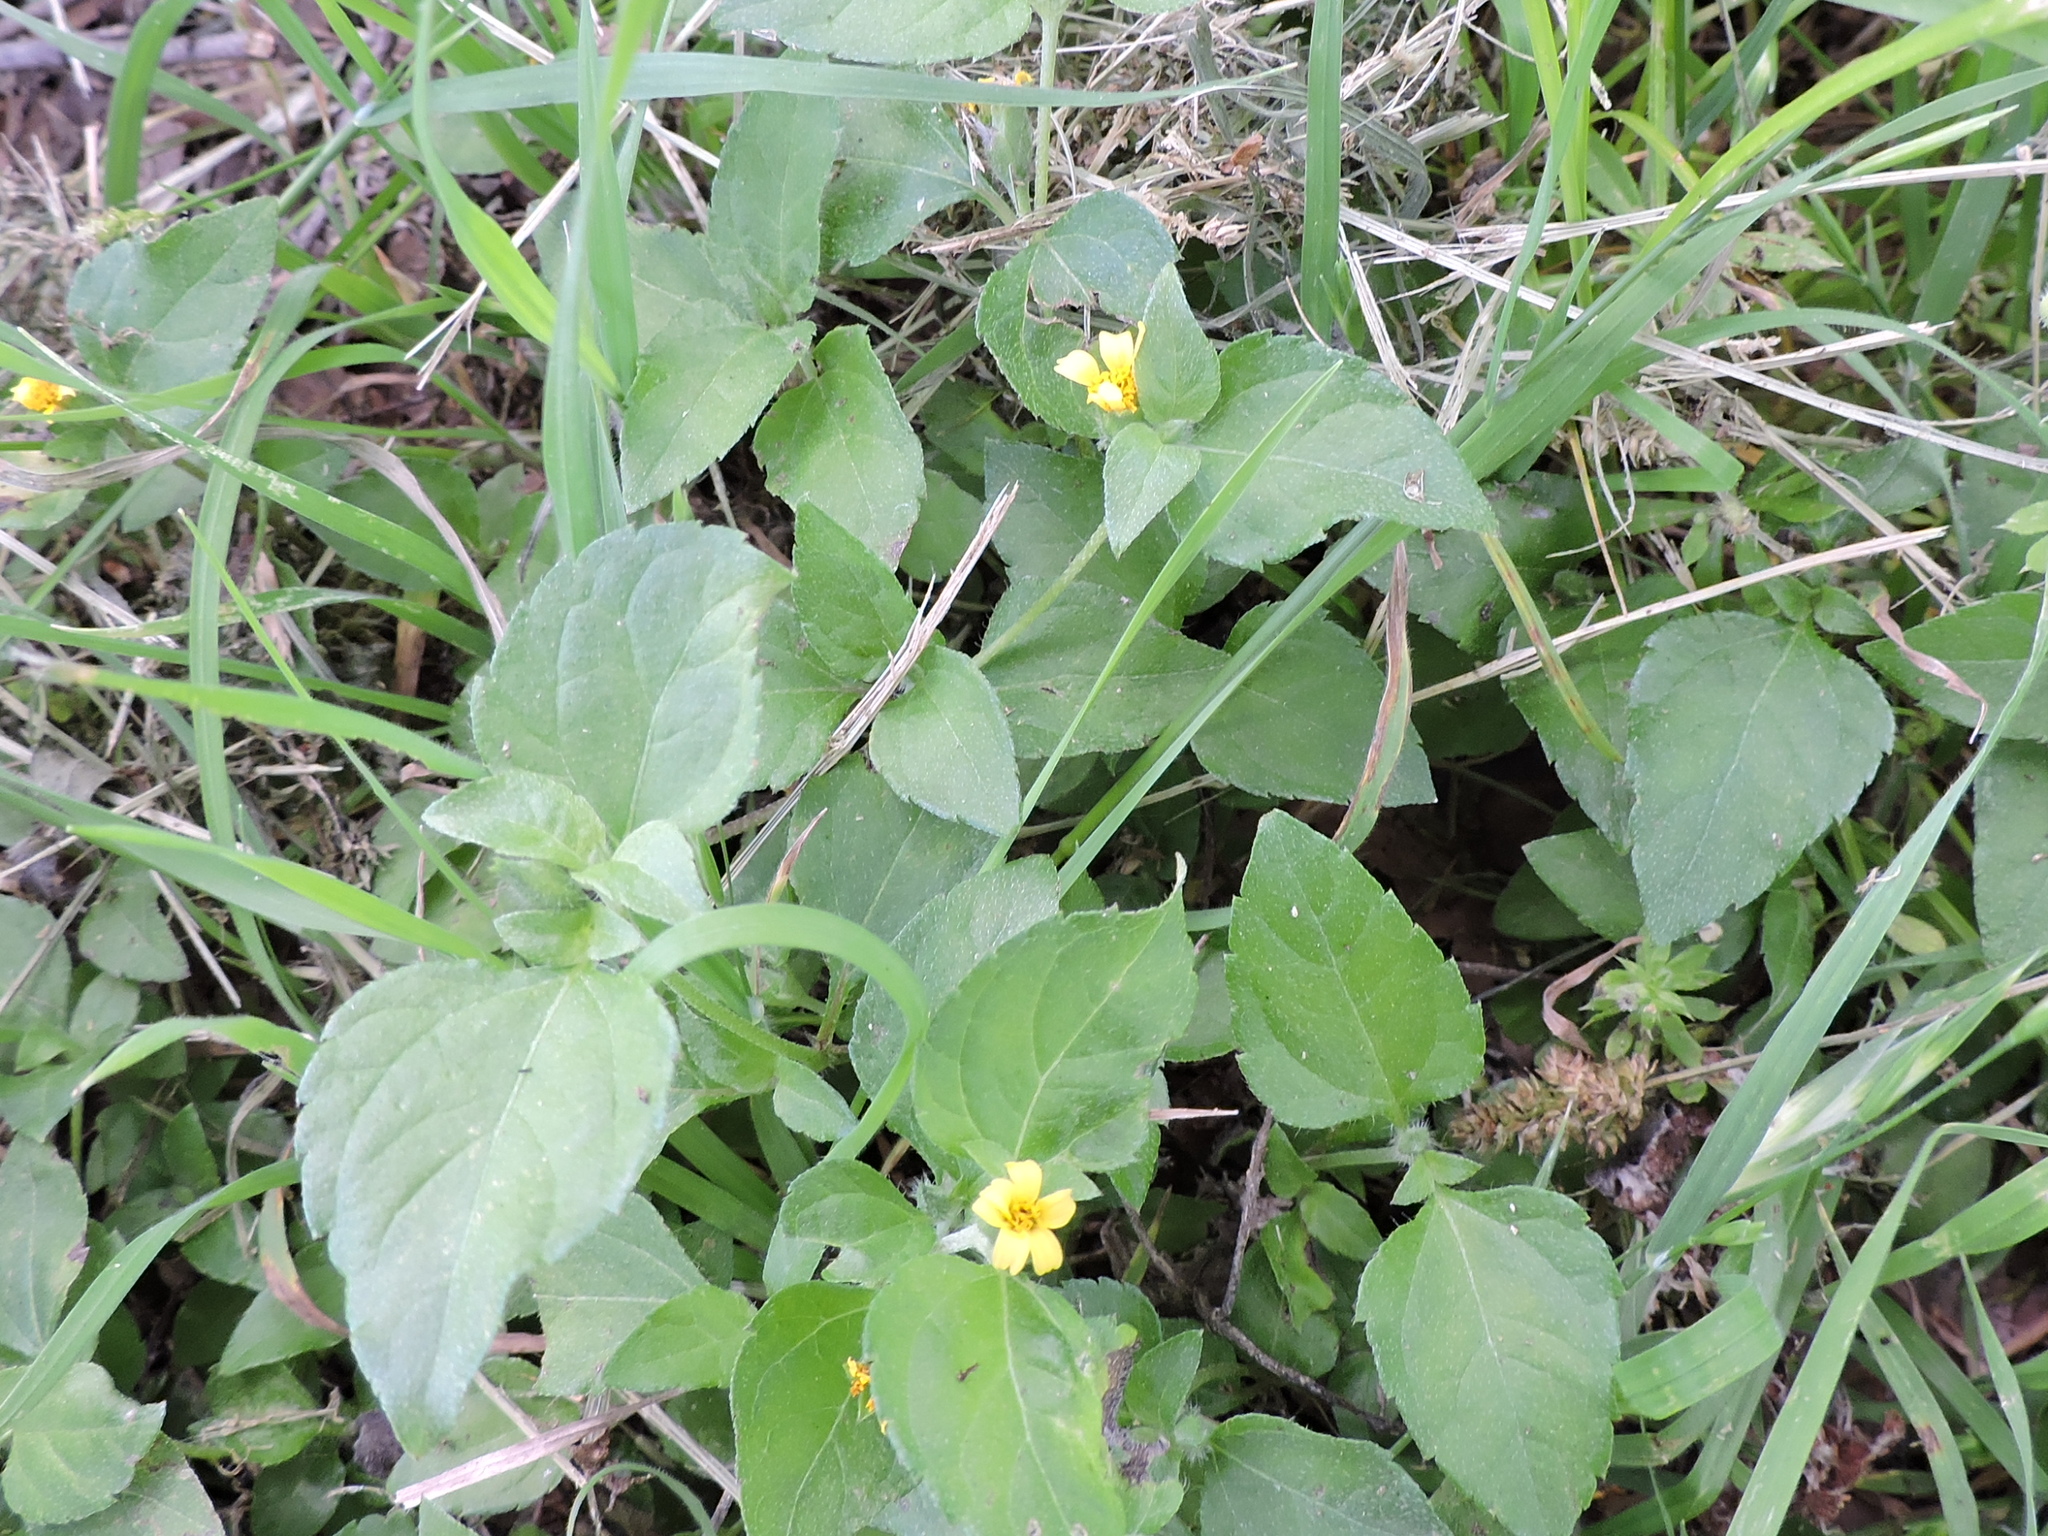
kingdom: Plantae
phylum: Tracheophyta
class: Magnoliopsida
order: Asterales
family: Asteraceae
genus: Calyptocarpus
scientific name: Calyptocarpus vialis
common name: Straggler daisy
